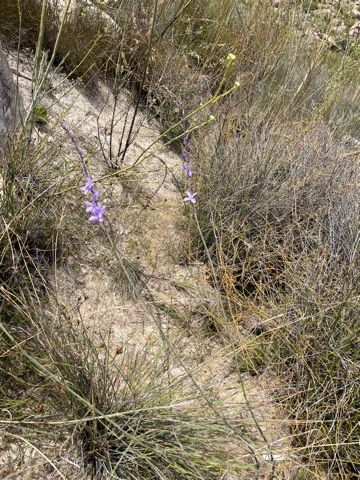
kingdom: Plantae
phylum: Tracheophyta
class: Magnoliopsida
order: Brassicales
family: Brassicaceae
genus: Heliophila
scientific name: Heliophila juncea
